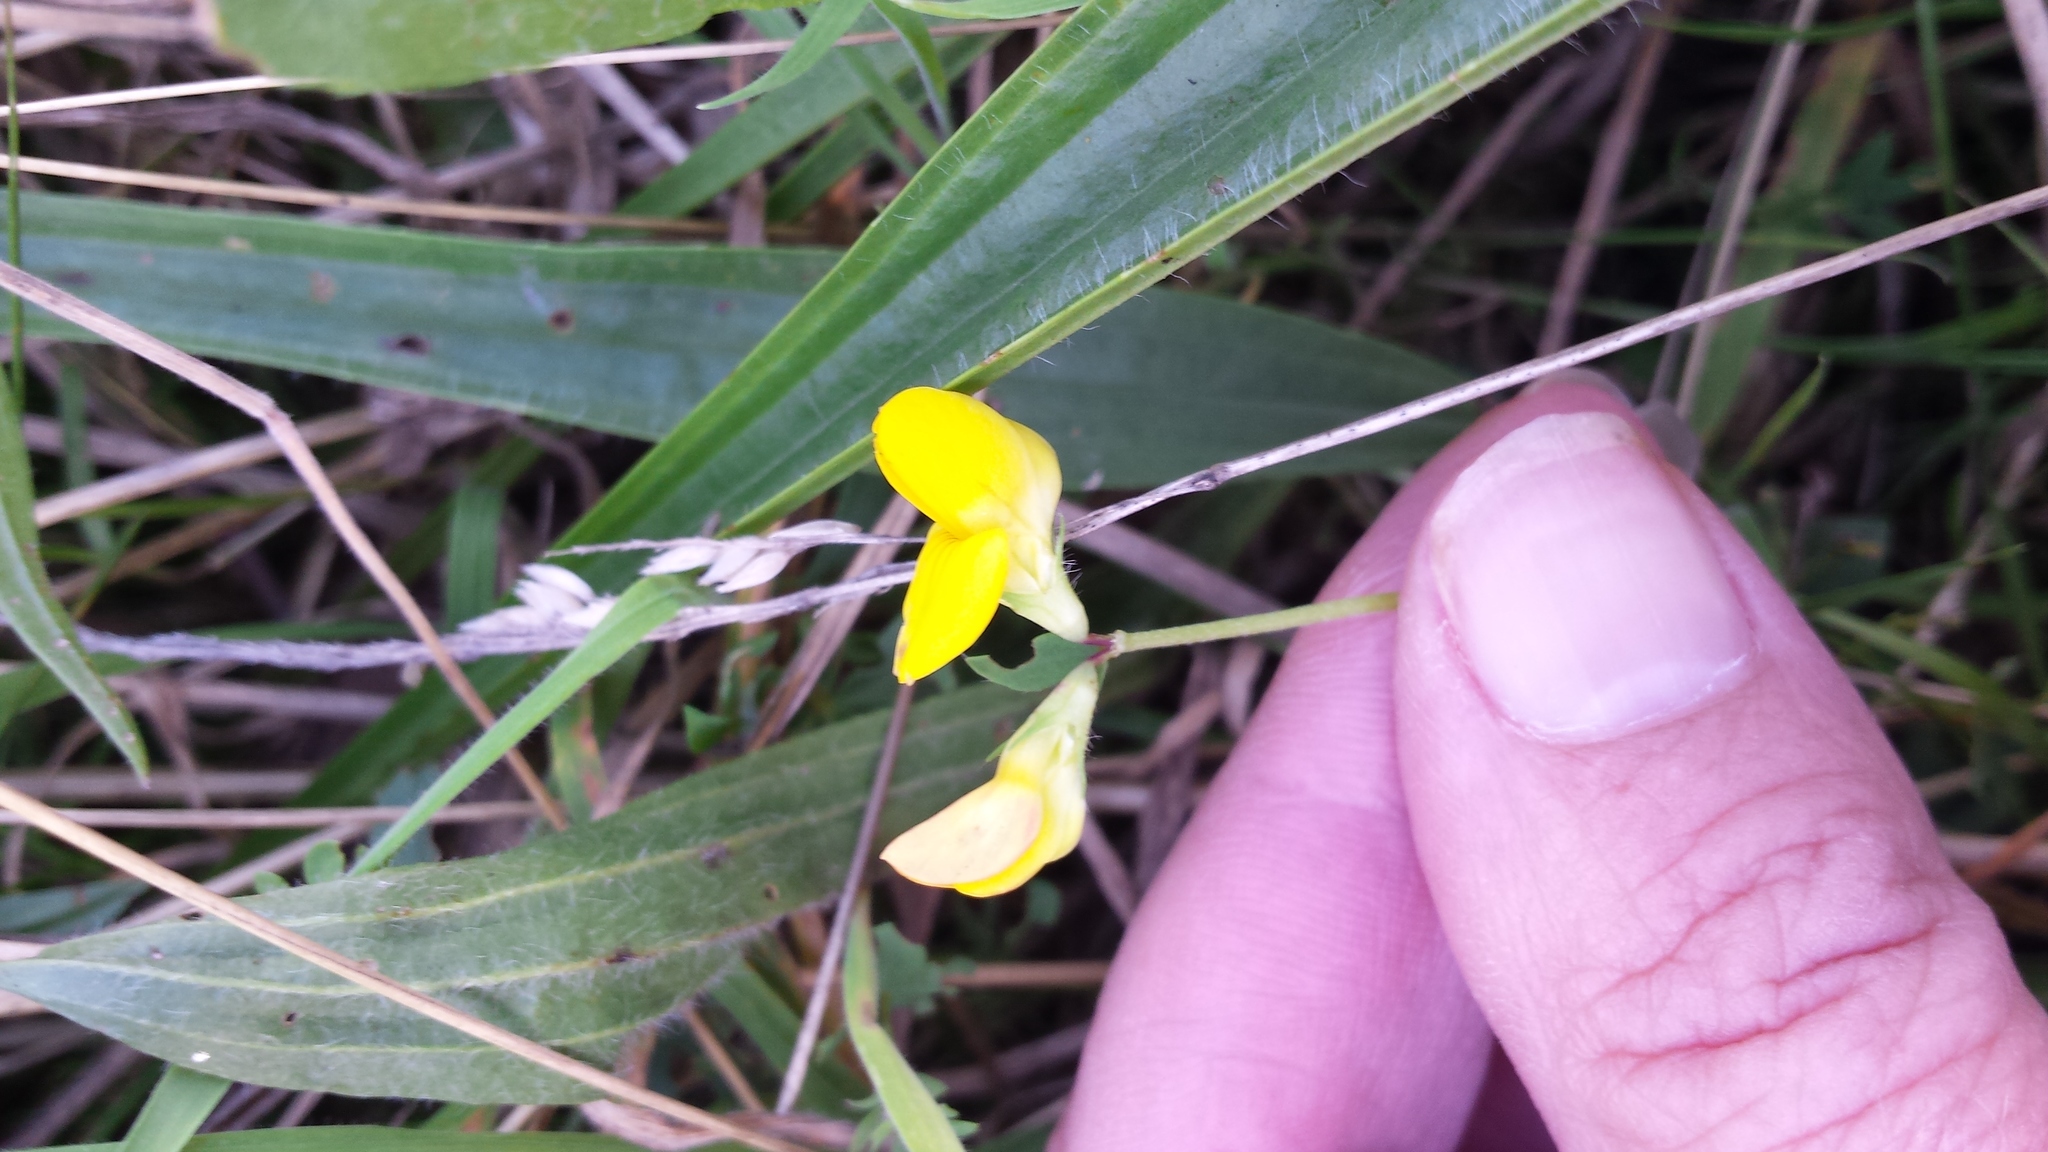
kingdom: Plantae
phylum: Tracheophyta
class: Magnoliopsida
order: Fabales
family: Fabaceae
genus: Lotus
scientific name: Lotus corniculatus
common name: Common bird's-foot-trefoil
